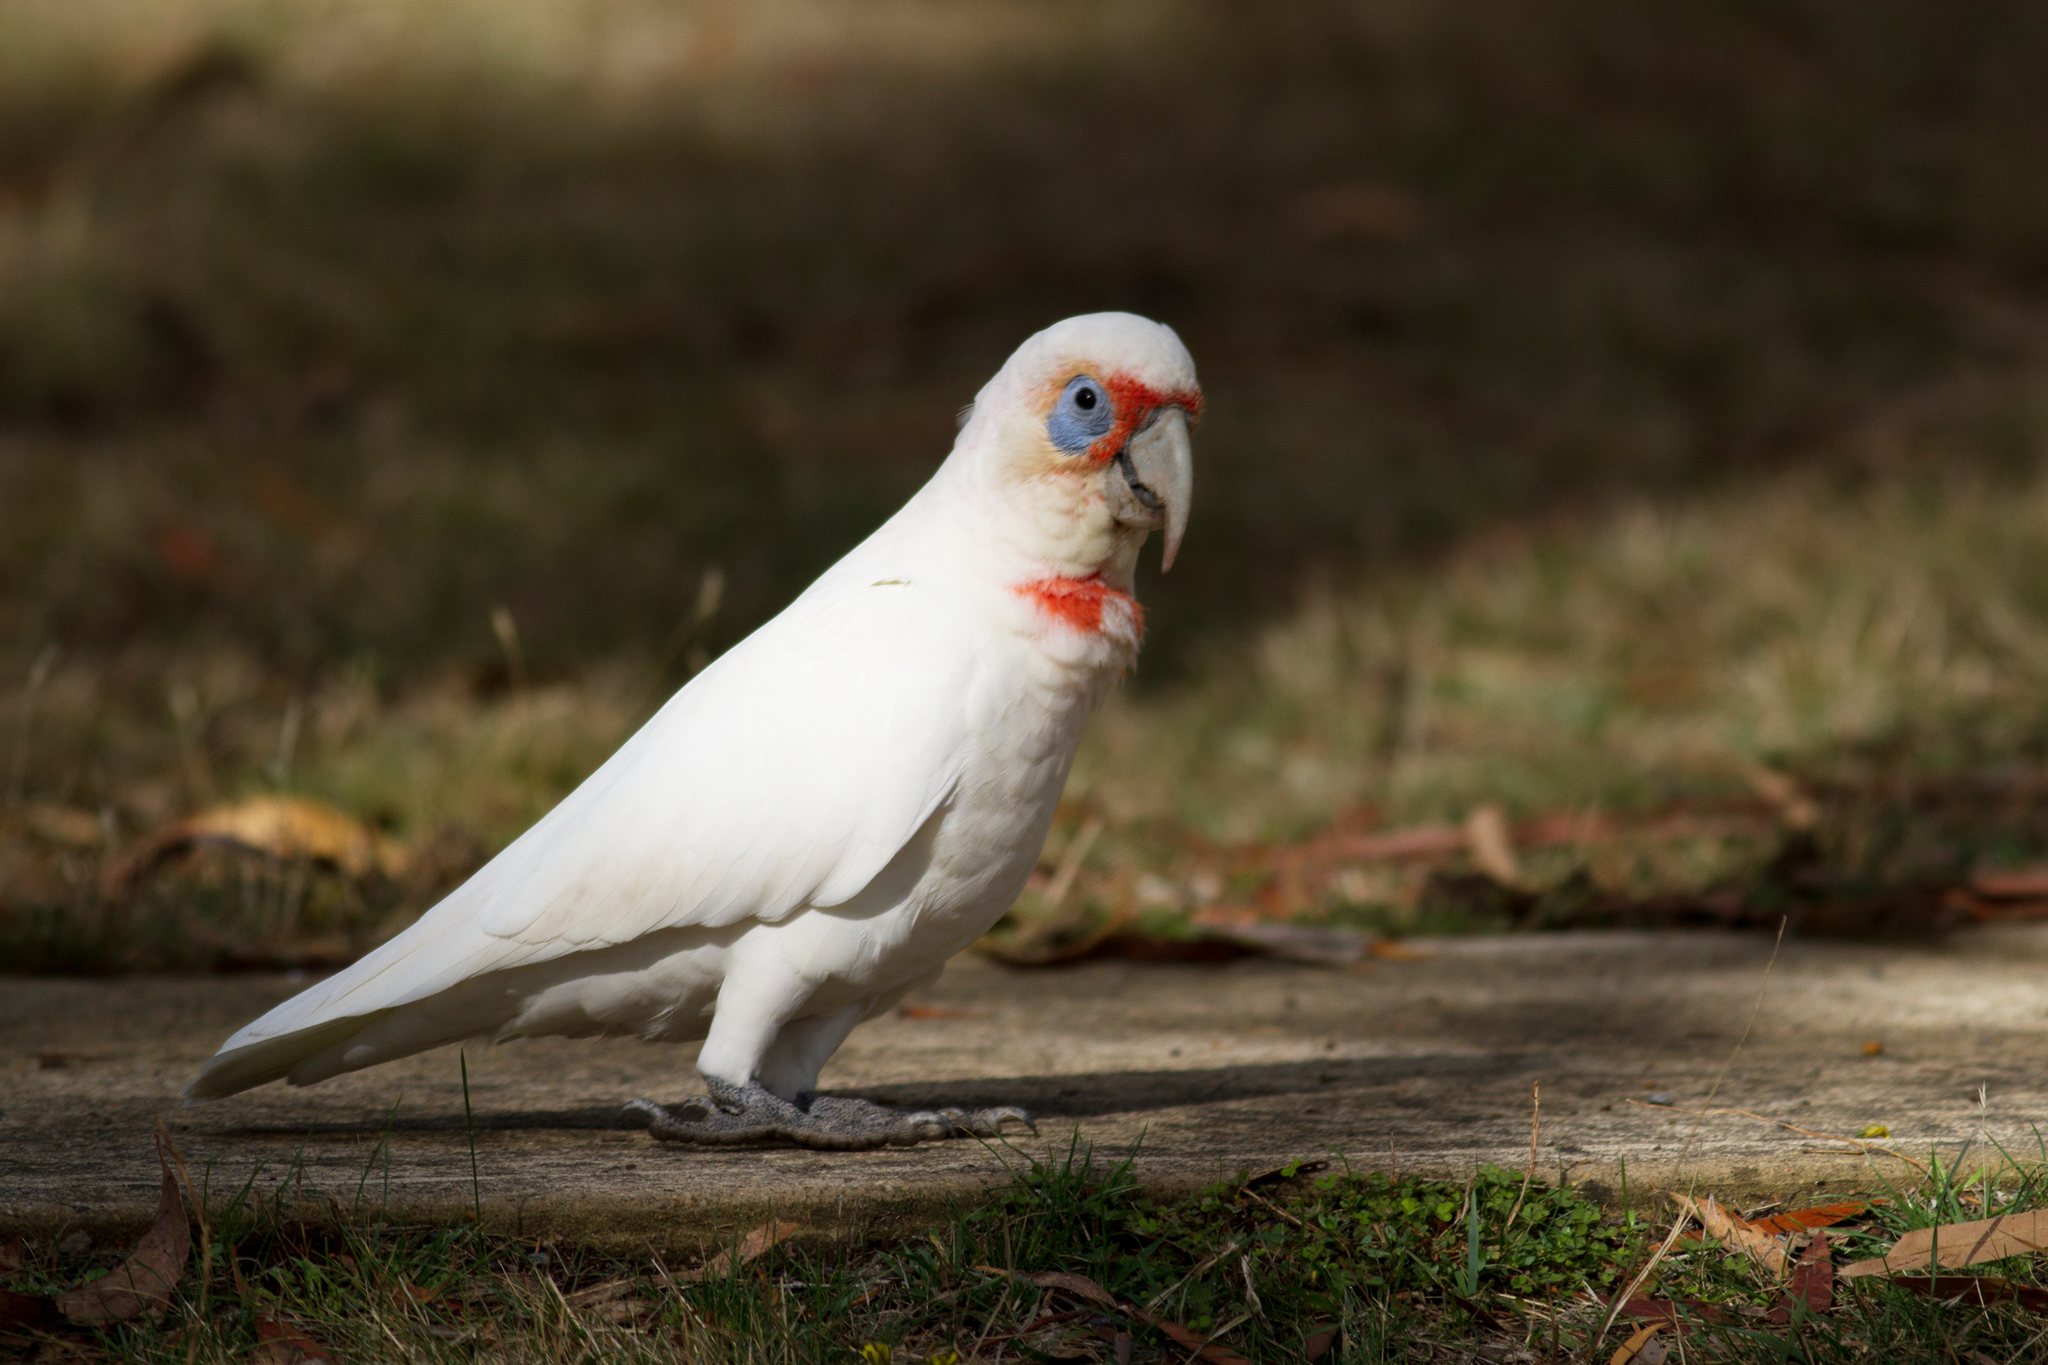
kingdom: Animalia
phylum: Chordata
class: Aves
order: Psittaciformes
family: Psittacidae
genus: Cacatua
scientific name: Cacatua tenuirostris
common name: Long-billed corella
